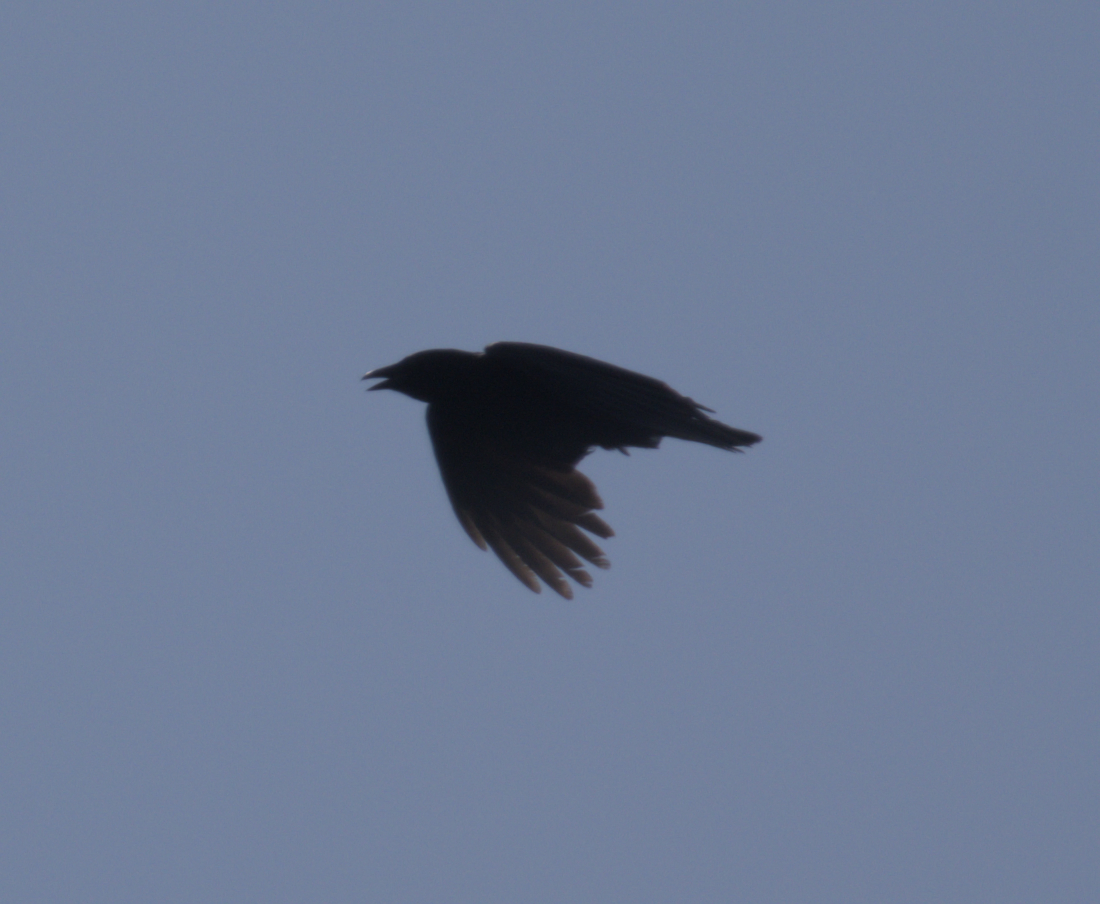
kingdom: Animalia
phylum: Chordata
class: Aves
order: Passeriformes
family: Corvidae
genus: Corvus
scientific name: Corvus brachyrhynchos
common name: American crow
